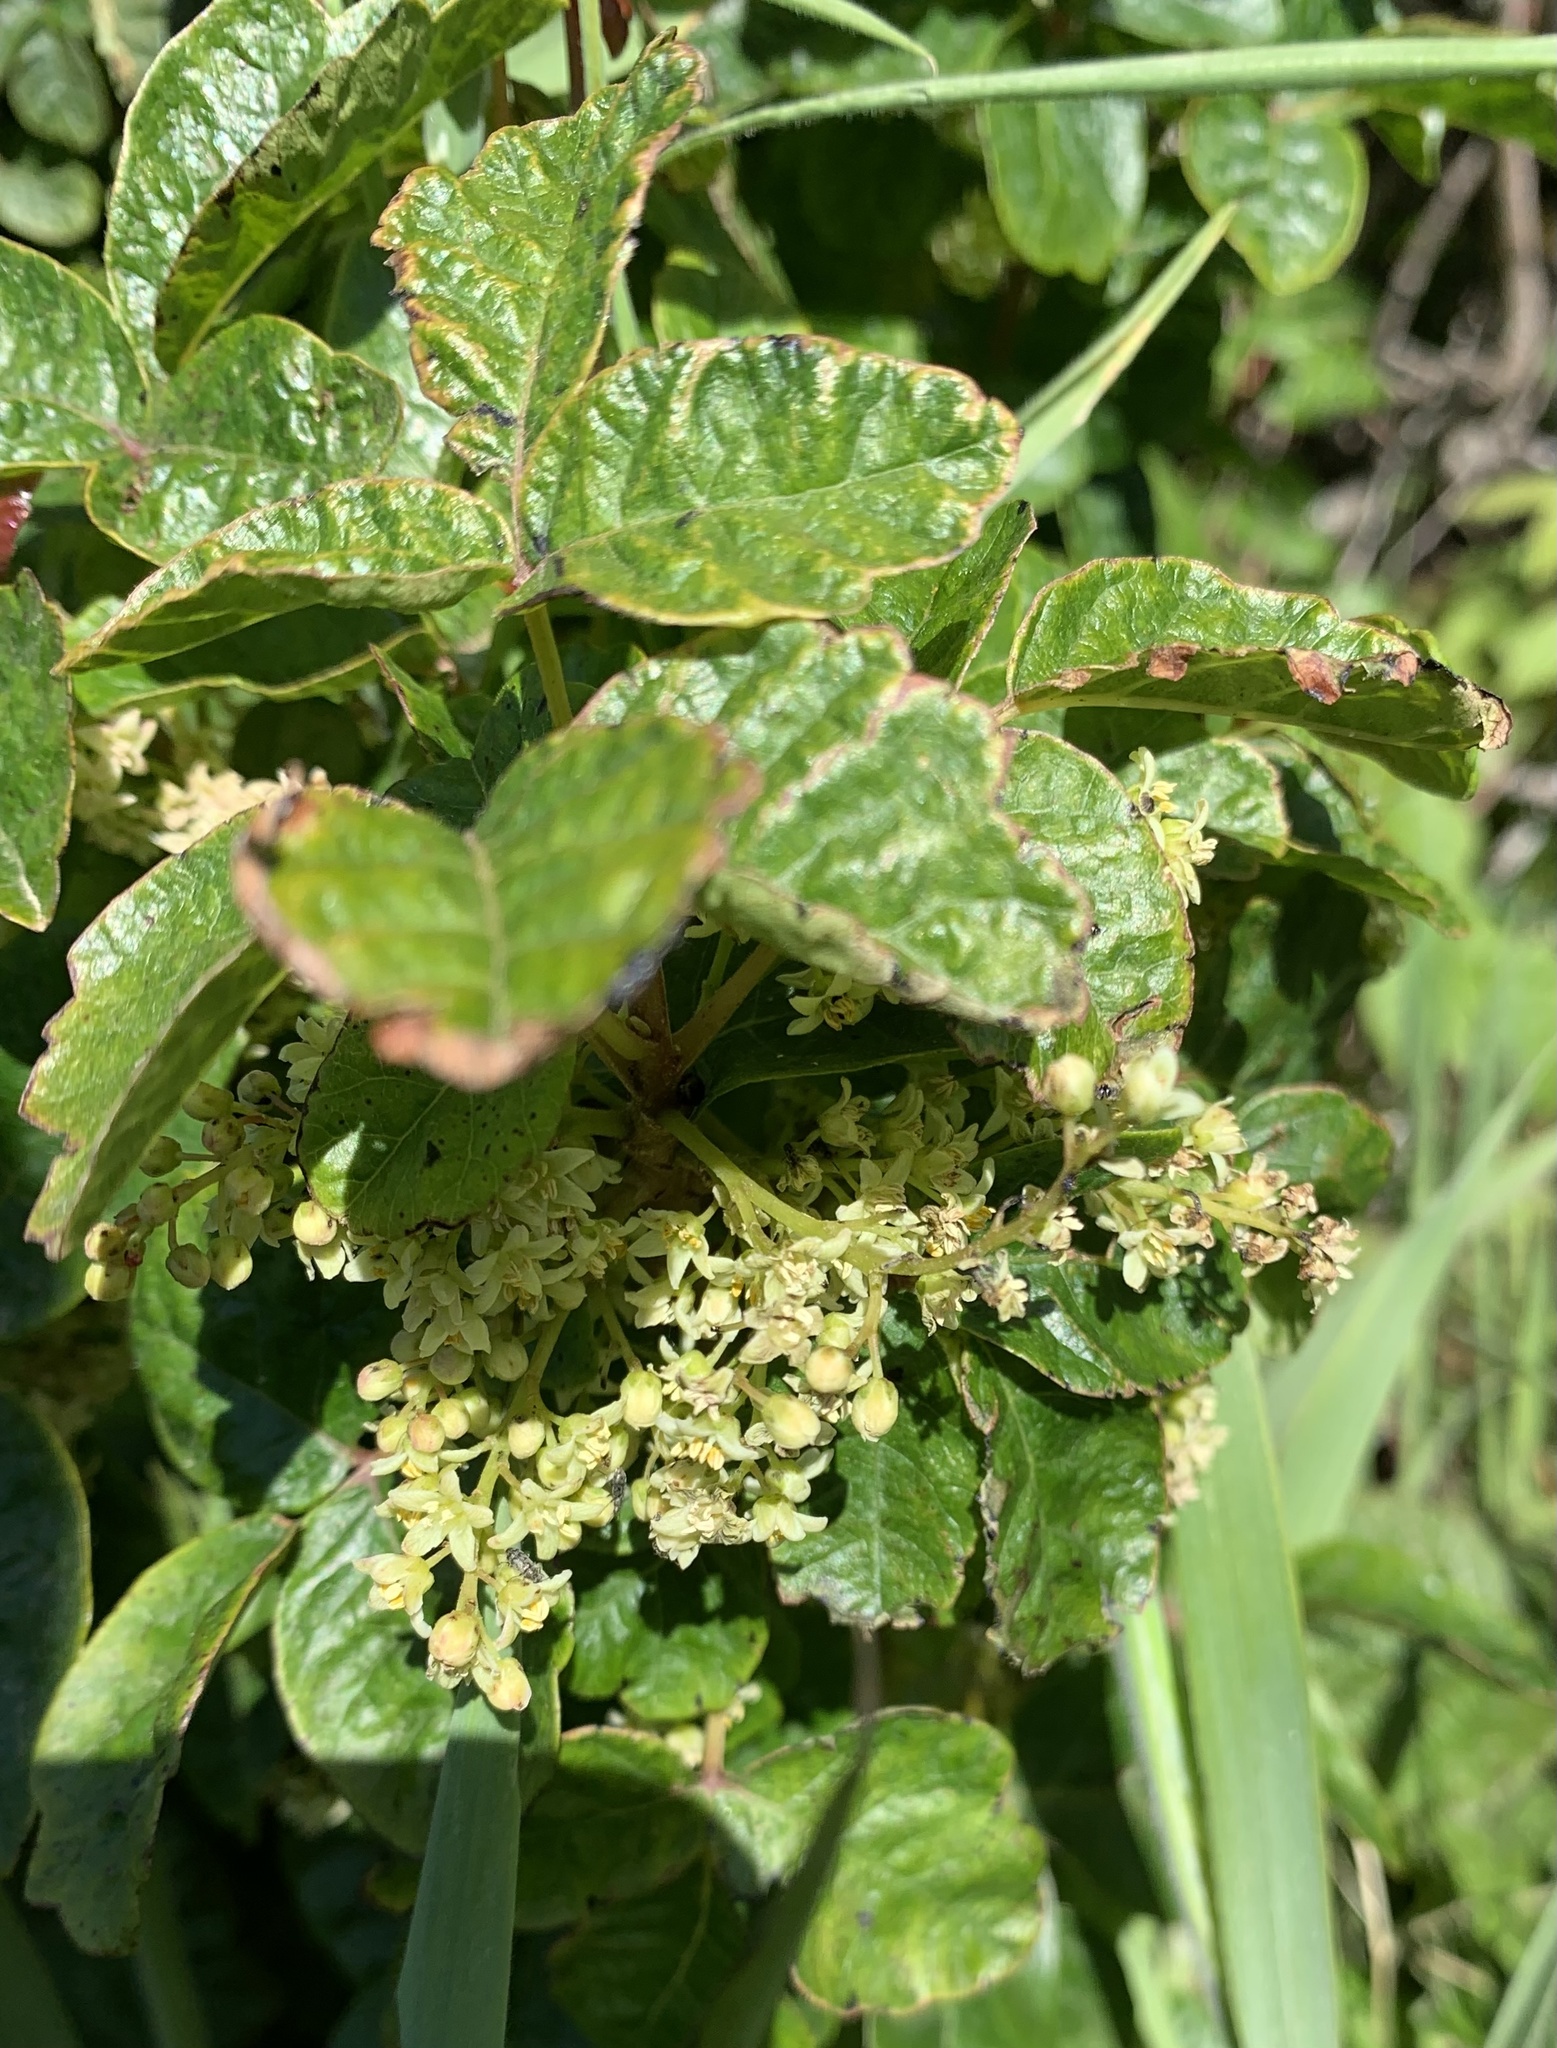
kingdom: Plantae
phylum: Tracheophyta
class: Magnoliopsida
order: Sapindales
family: Anacardiaceae
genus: Toxicodendron
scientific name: Toxicodendron diversilobum
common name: Pacific poison-oak
